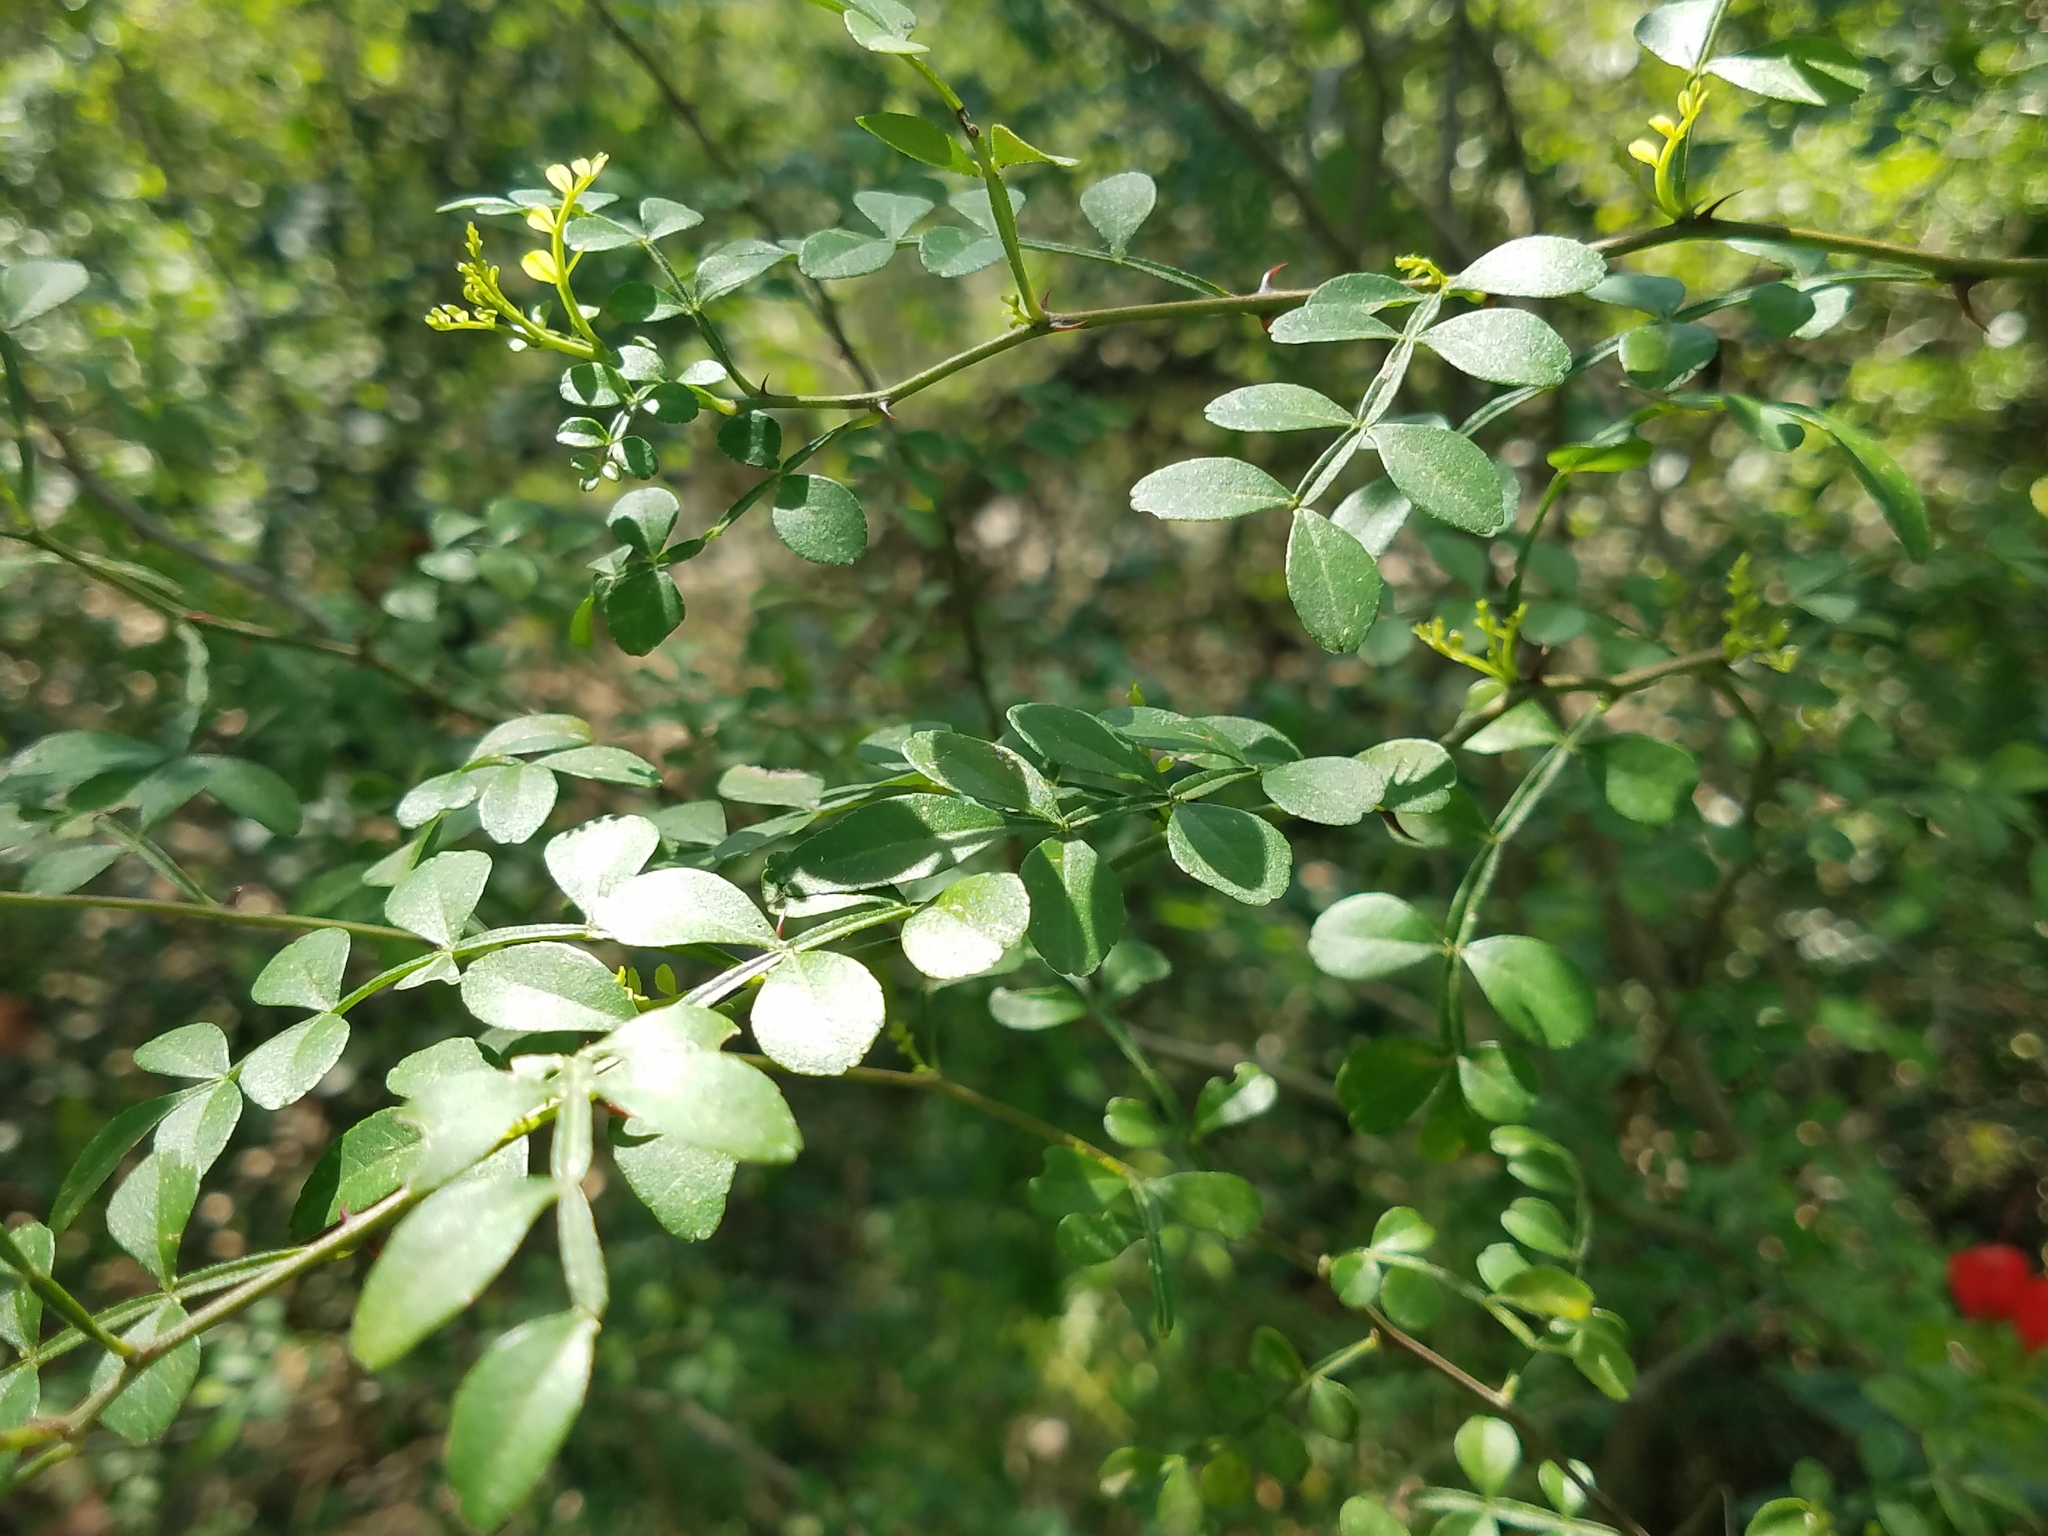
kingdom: Plantae
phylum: Tracheophyta
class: Magnoliopsida
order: Sapindales
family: Rutaceae
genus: Zanthoxylum
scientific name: Zanthoxylum fagara
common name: Lime prickly-ash
